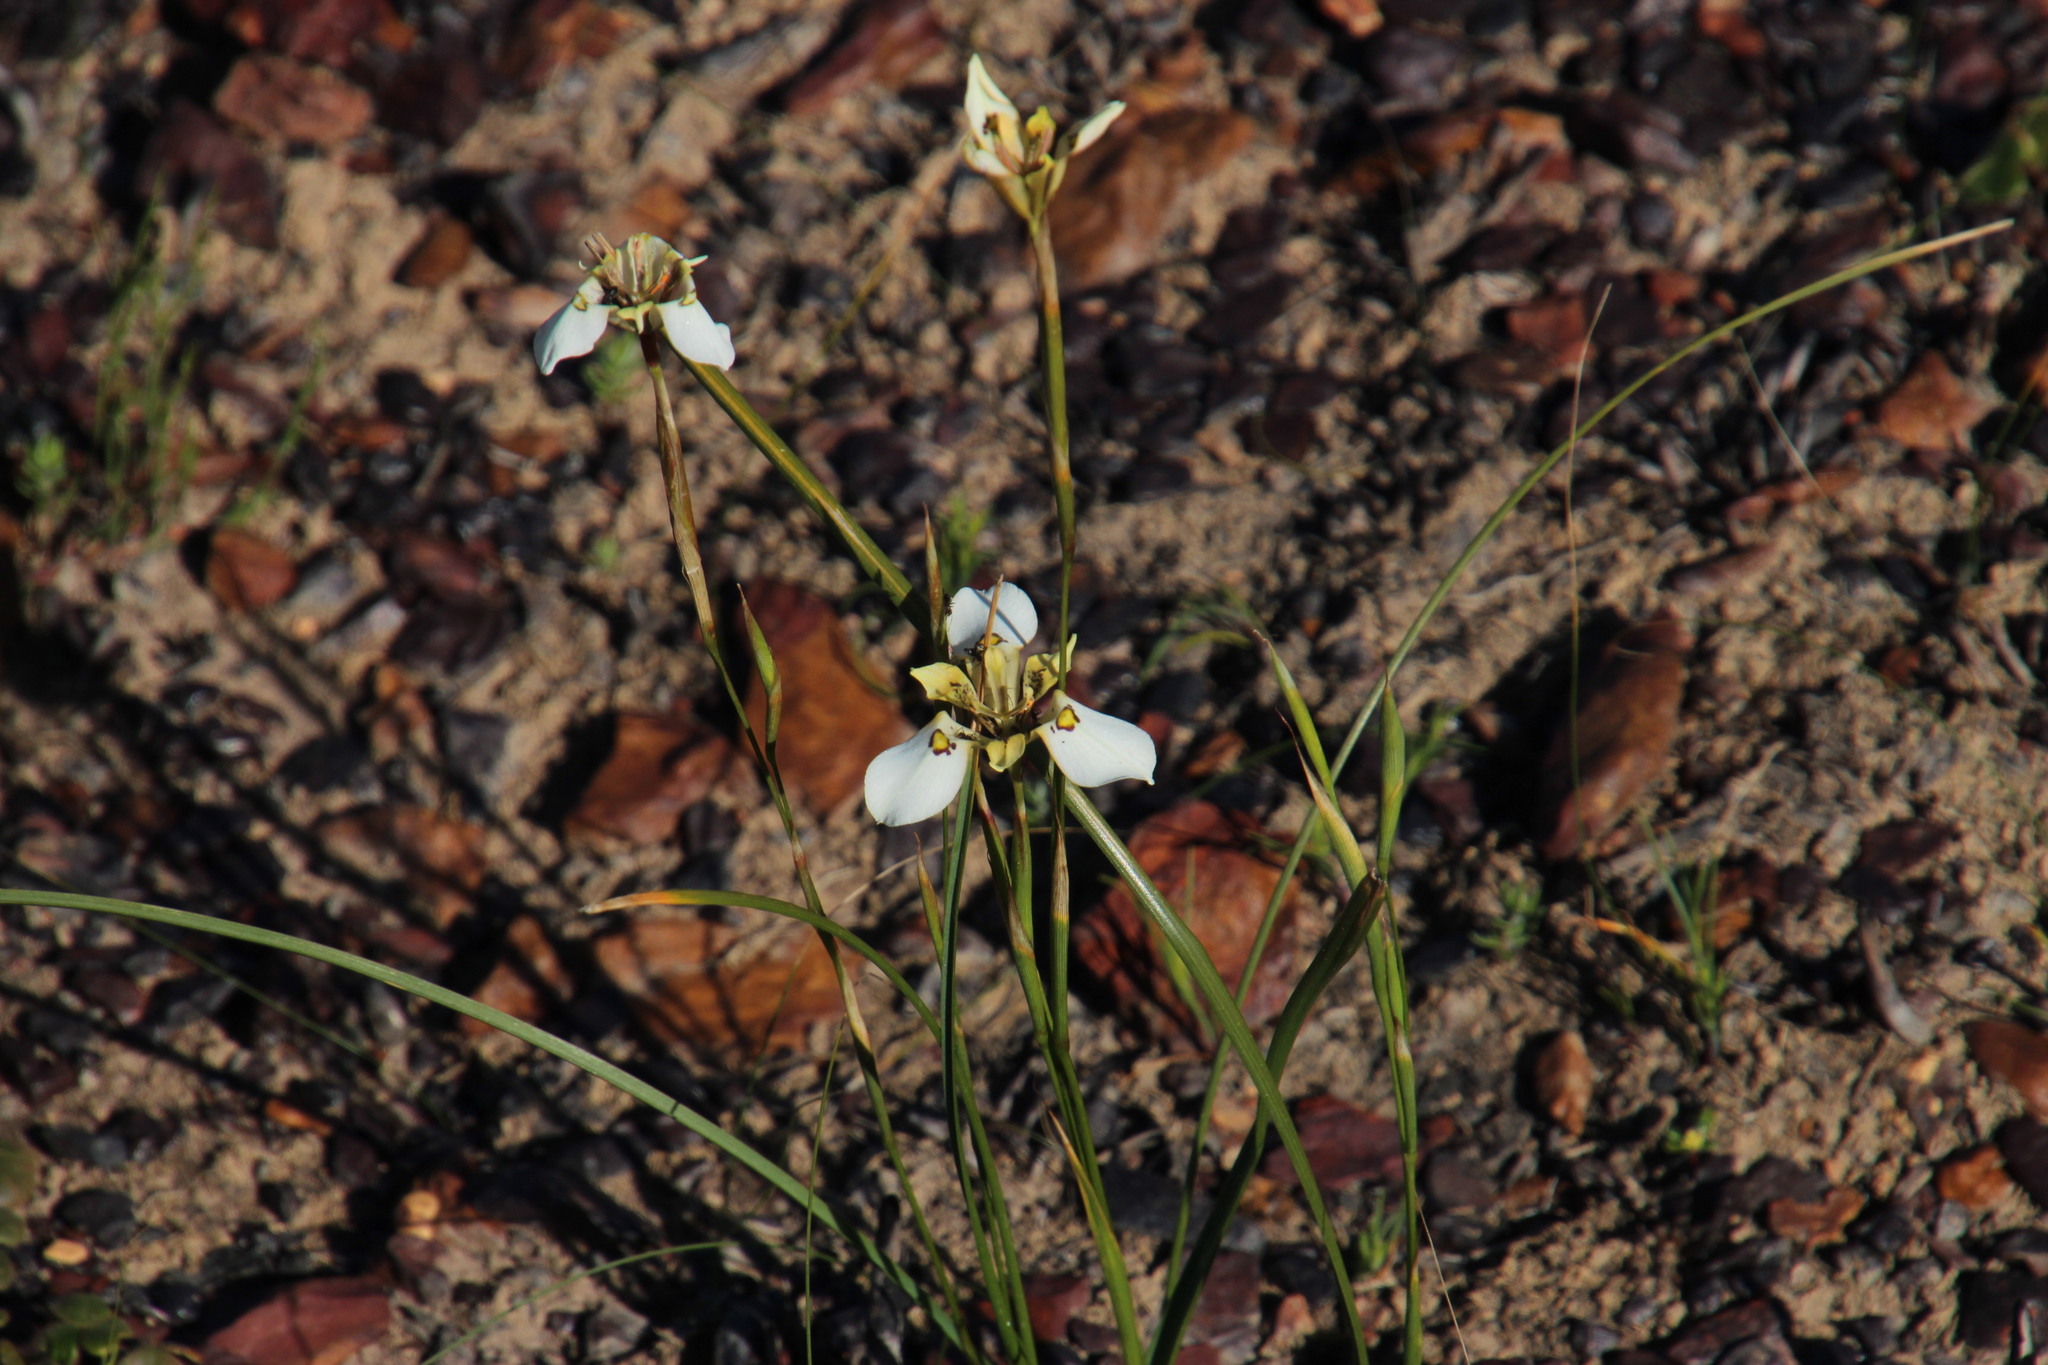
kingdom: Plantae
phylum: Tracheophyta
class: Liliopsida
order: Asparagales
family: Iridaceae
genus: Moraea
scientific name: Moraea cantharophila
